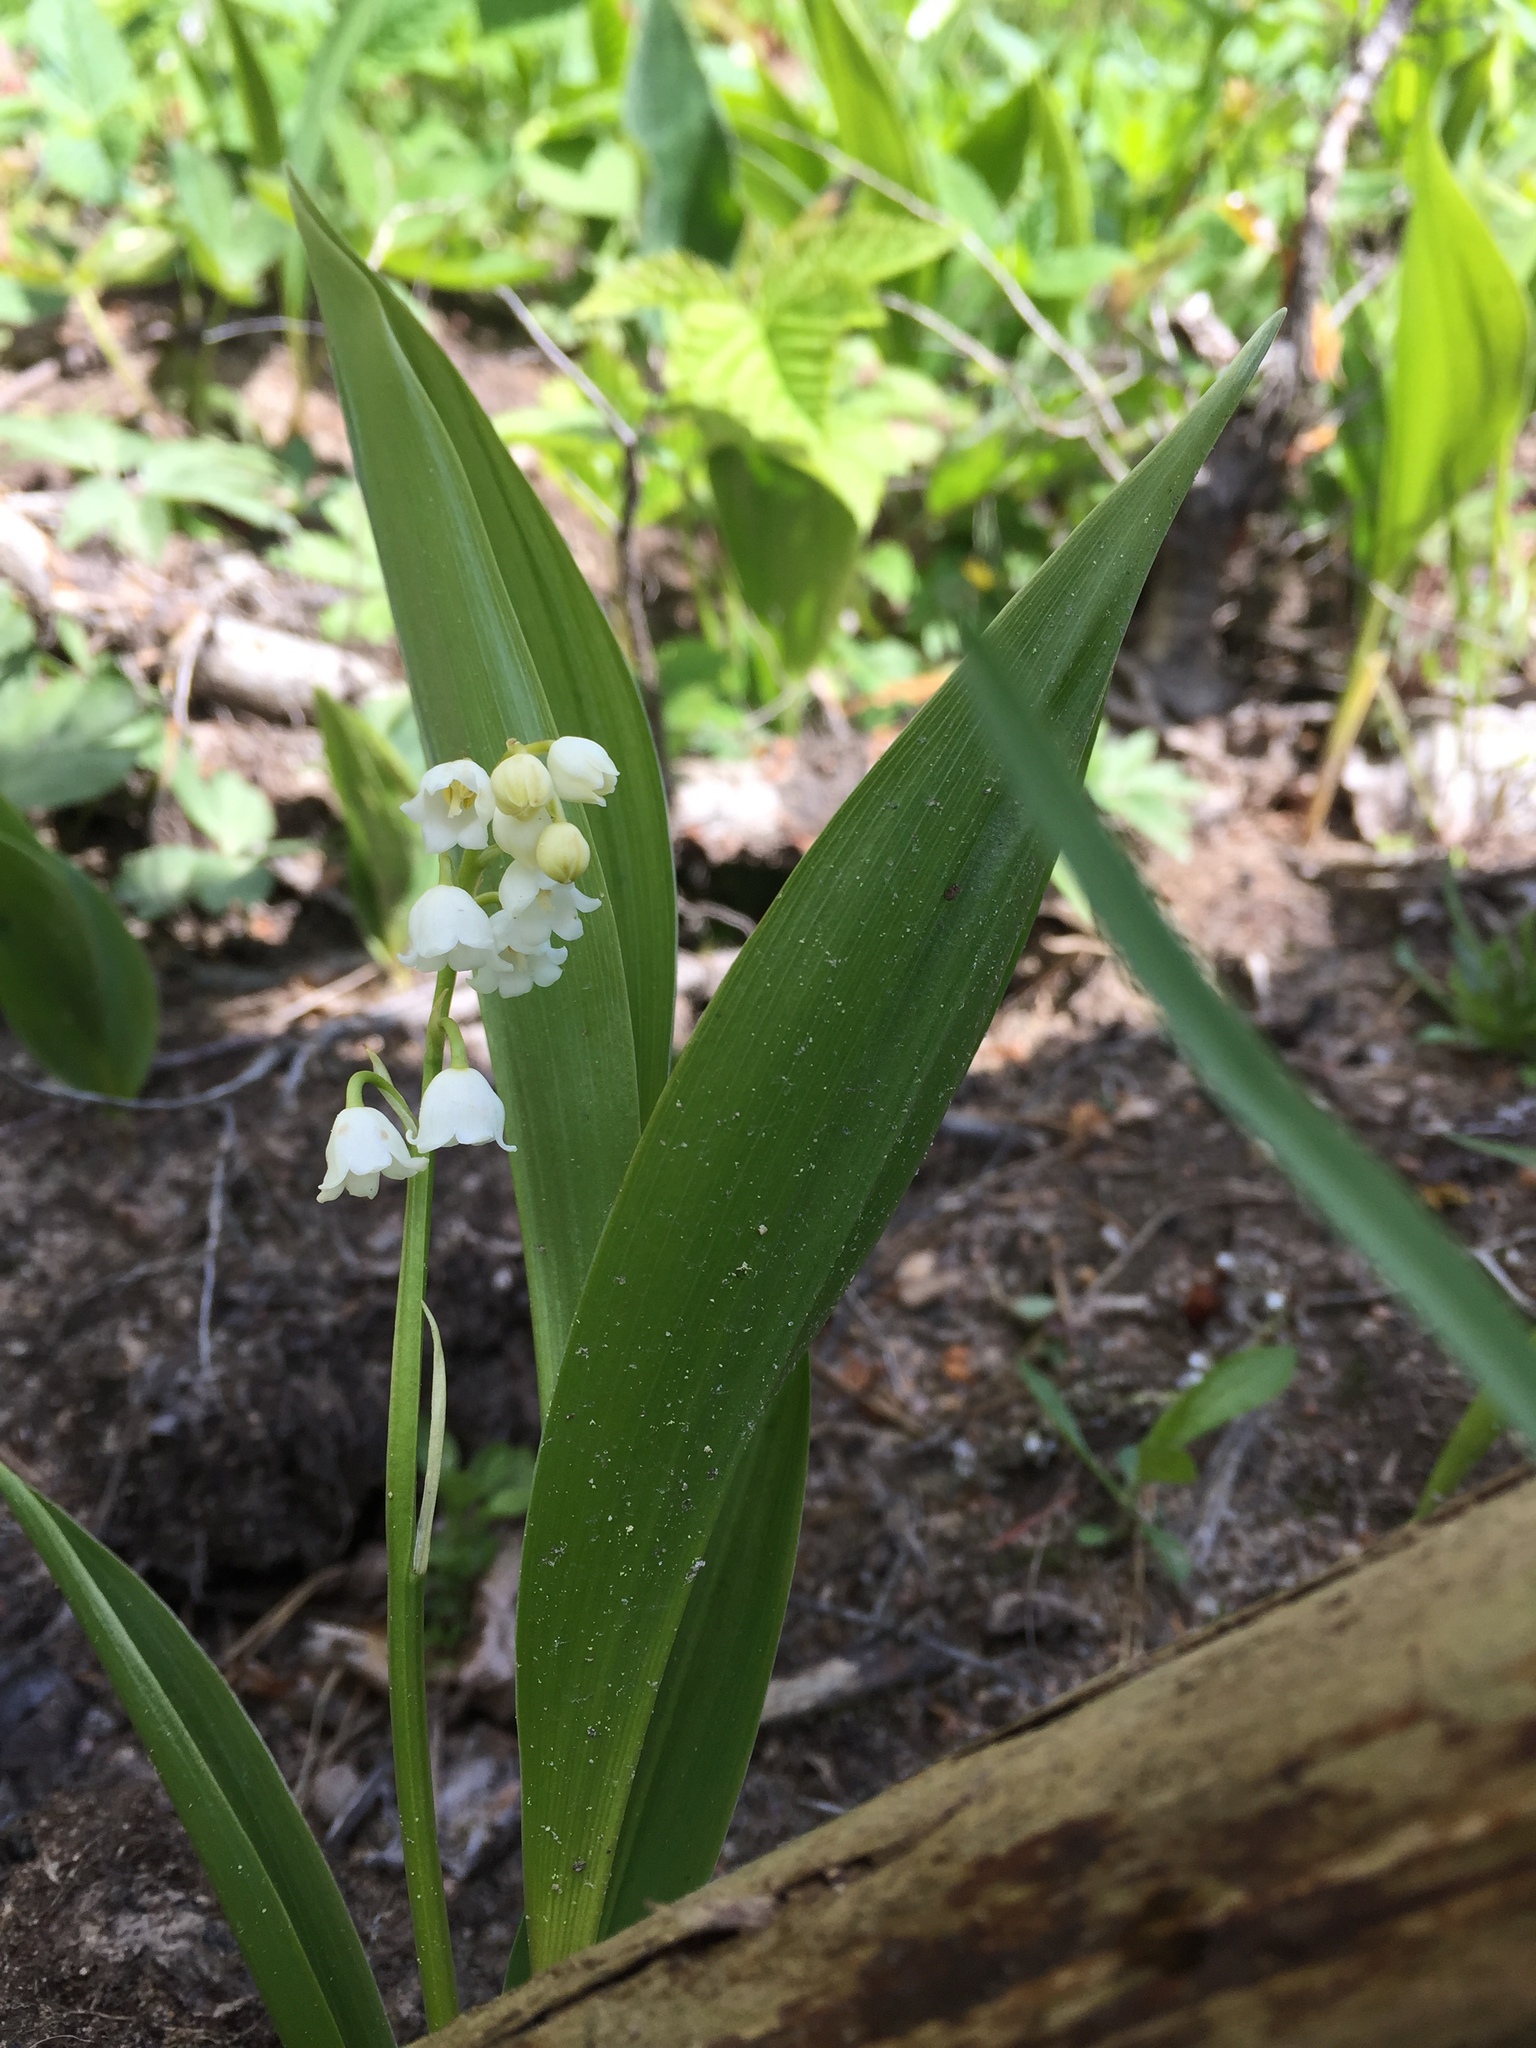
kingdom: Plantae
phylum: Tracheophyta
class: Liliopsida
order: Asparagales
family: Asparagaceae
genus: Convallaria
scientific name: Convallaria majalis
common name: Lily-of-the-valley
